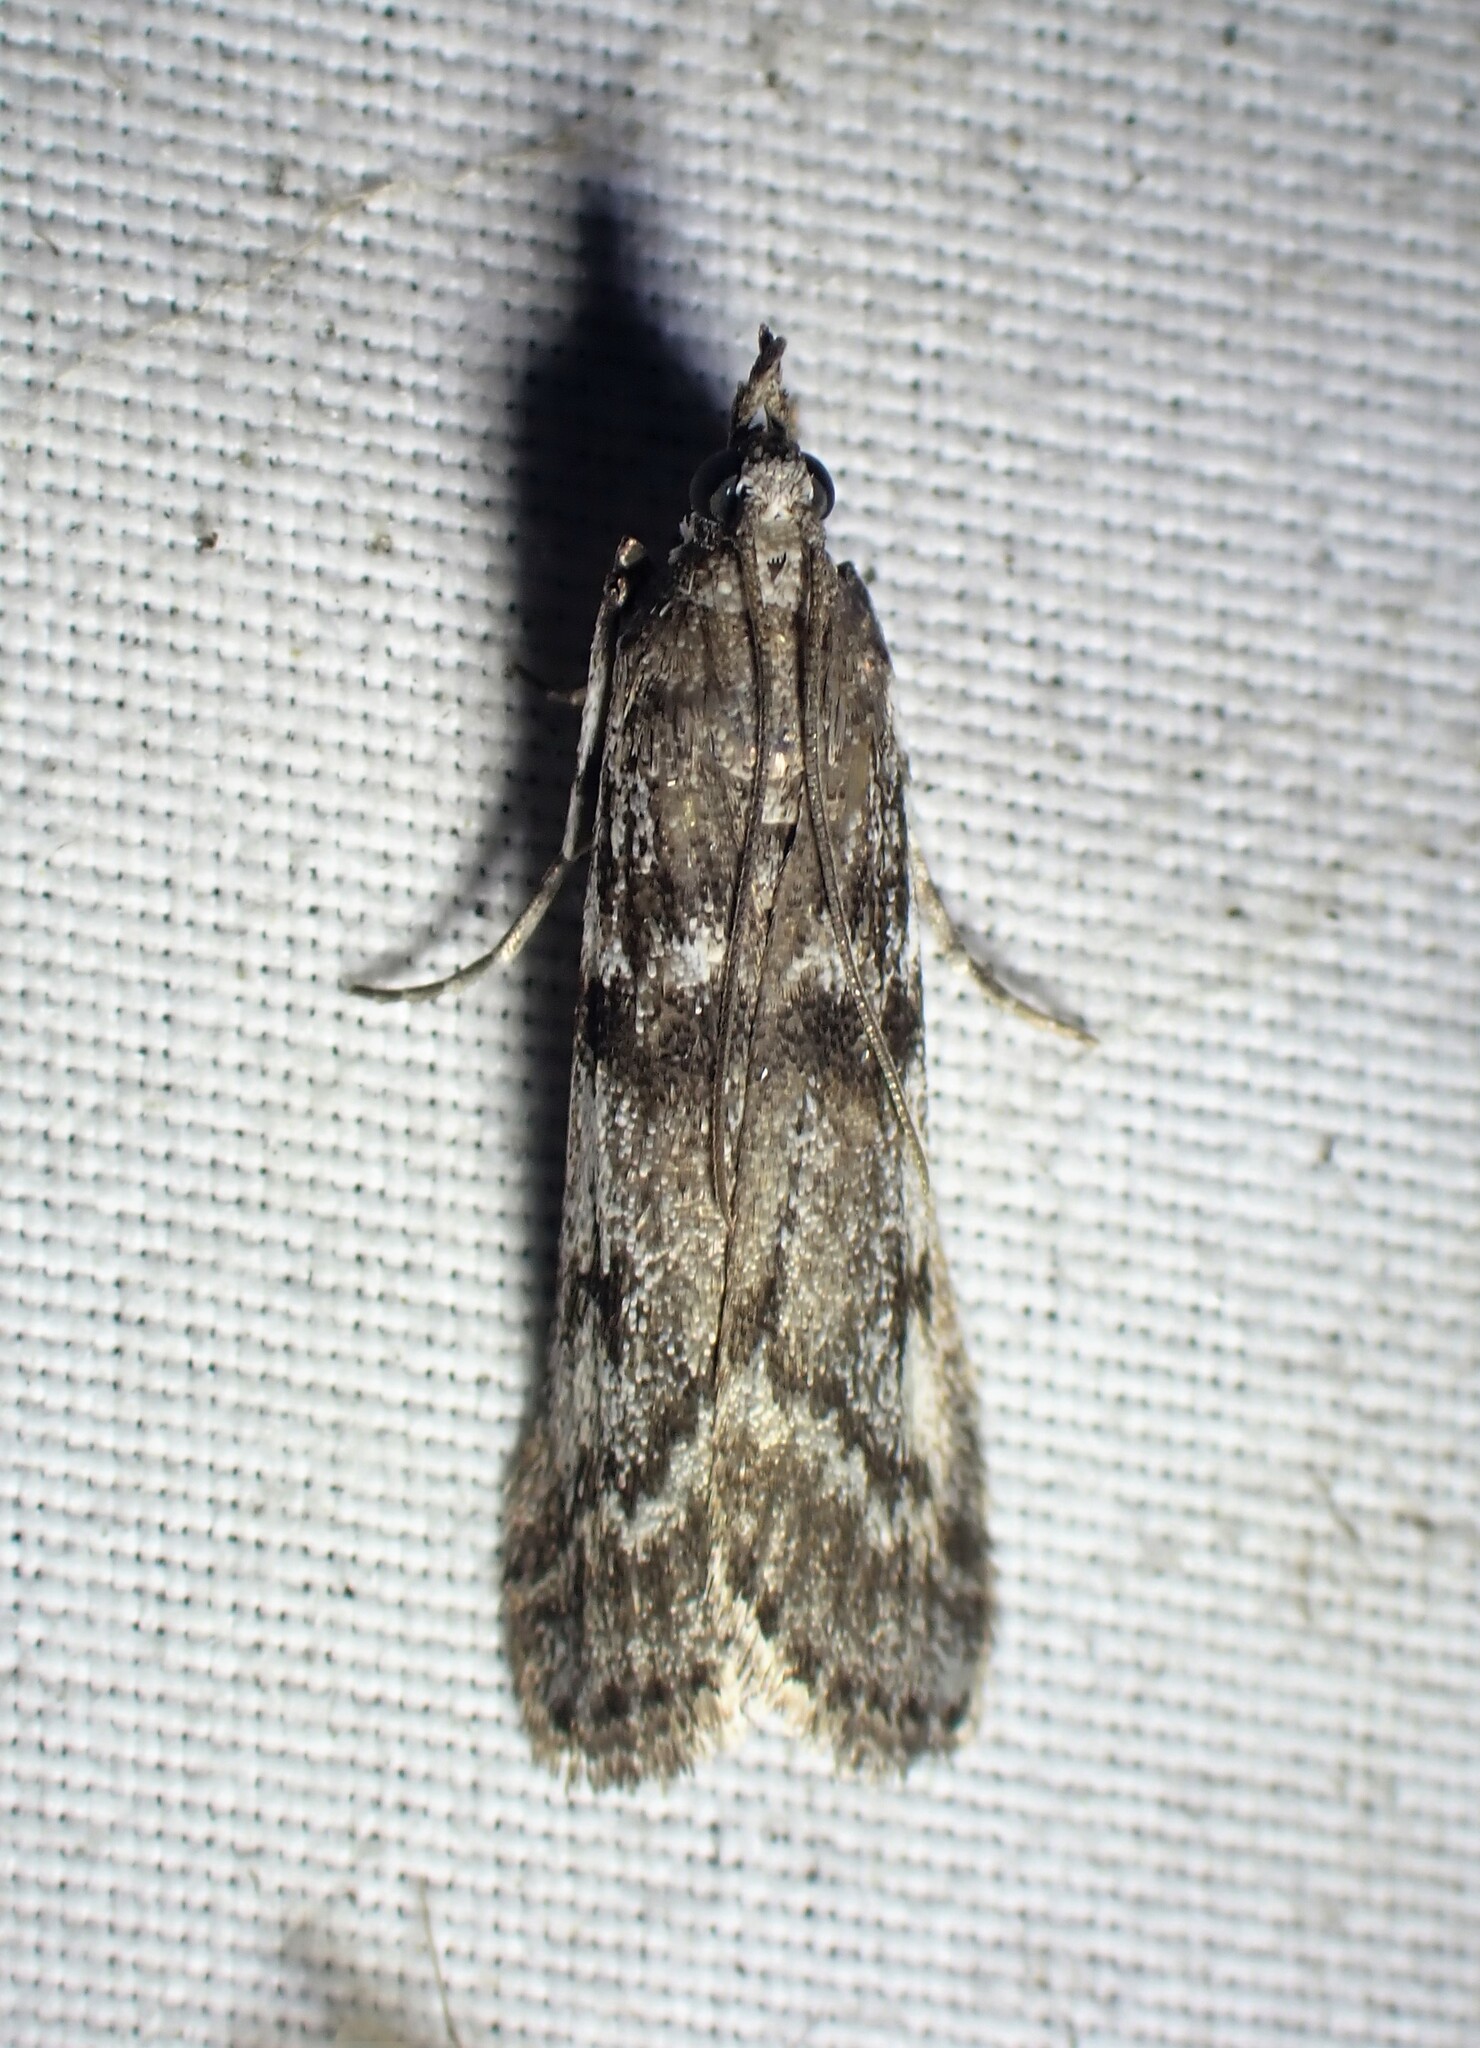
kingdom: Animalia
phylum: Arthropoda
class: Insecta
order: Lepidoptera
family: Pyralidae
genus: Zophodia
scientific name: Zophodia convolutella
